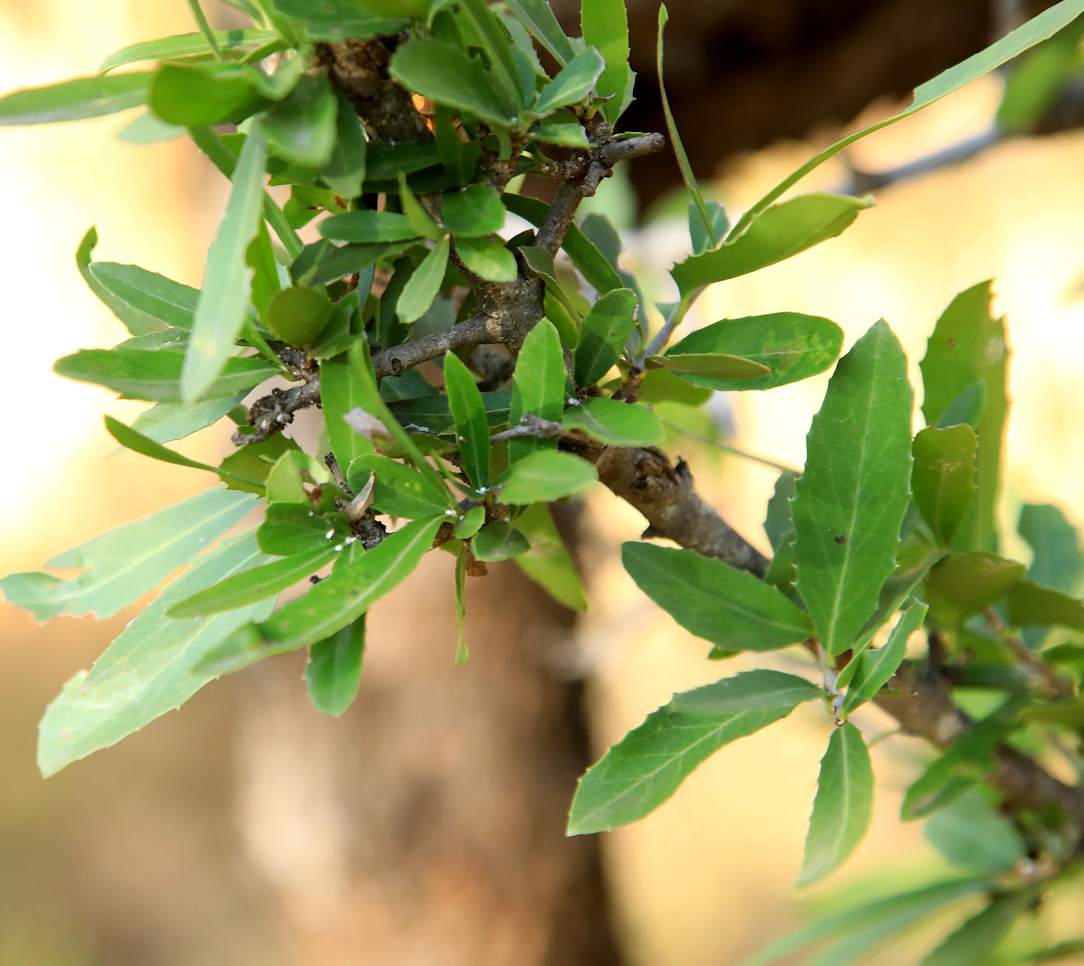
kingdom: Plantae
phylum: Tracheophyta
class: Magnoliopsida
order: Celastrales
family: Celastraceae
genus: Elaeodendron
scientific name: Elaeodendron transvaalense
